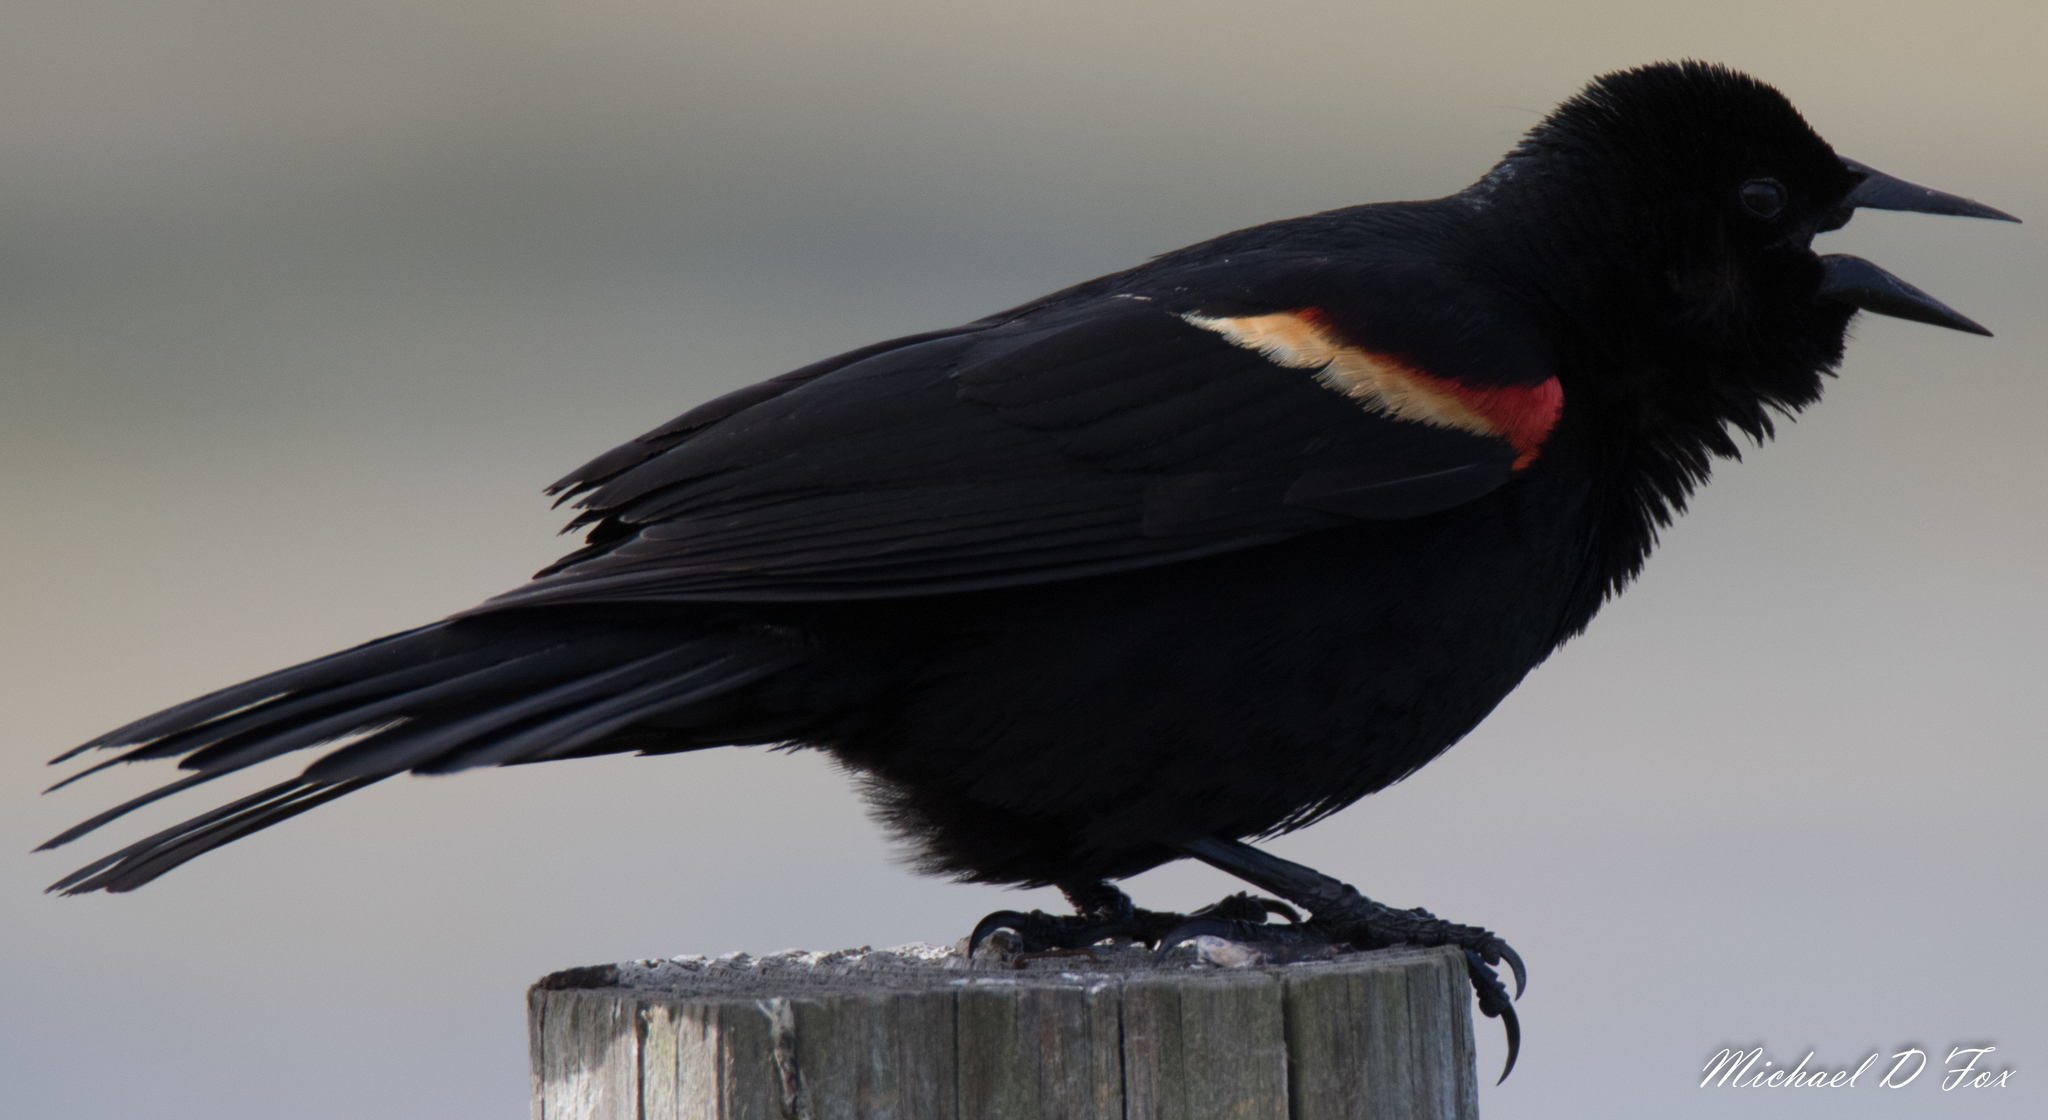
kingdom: Animalia
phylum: Chordata
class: Aves
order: Passeriformes
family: Icteridae
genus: Agelaius
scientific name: Agelaius phoeniceus
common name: Red-winged blackbird
